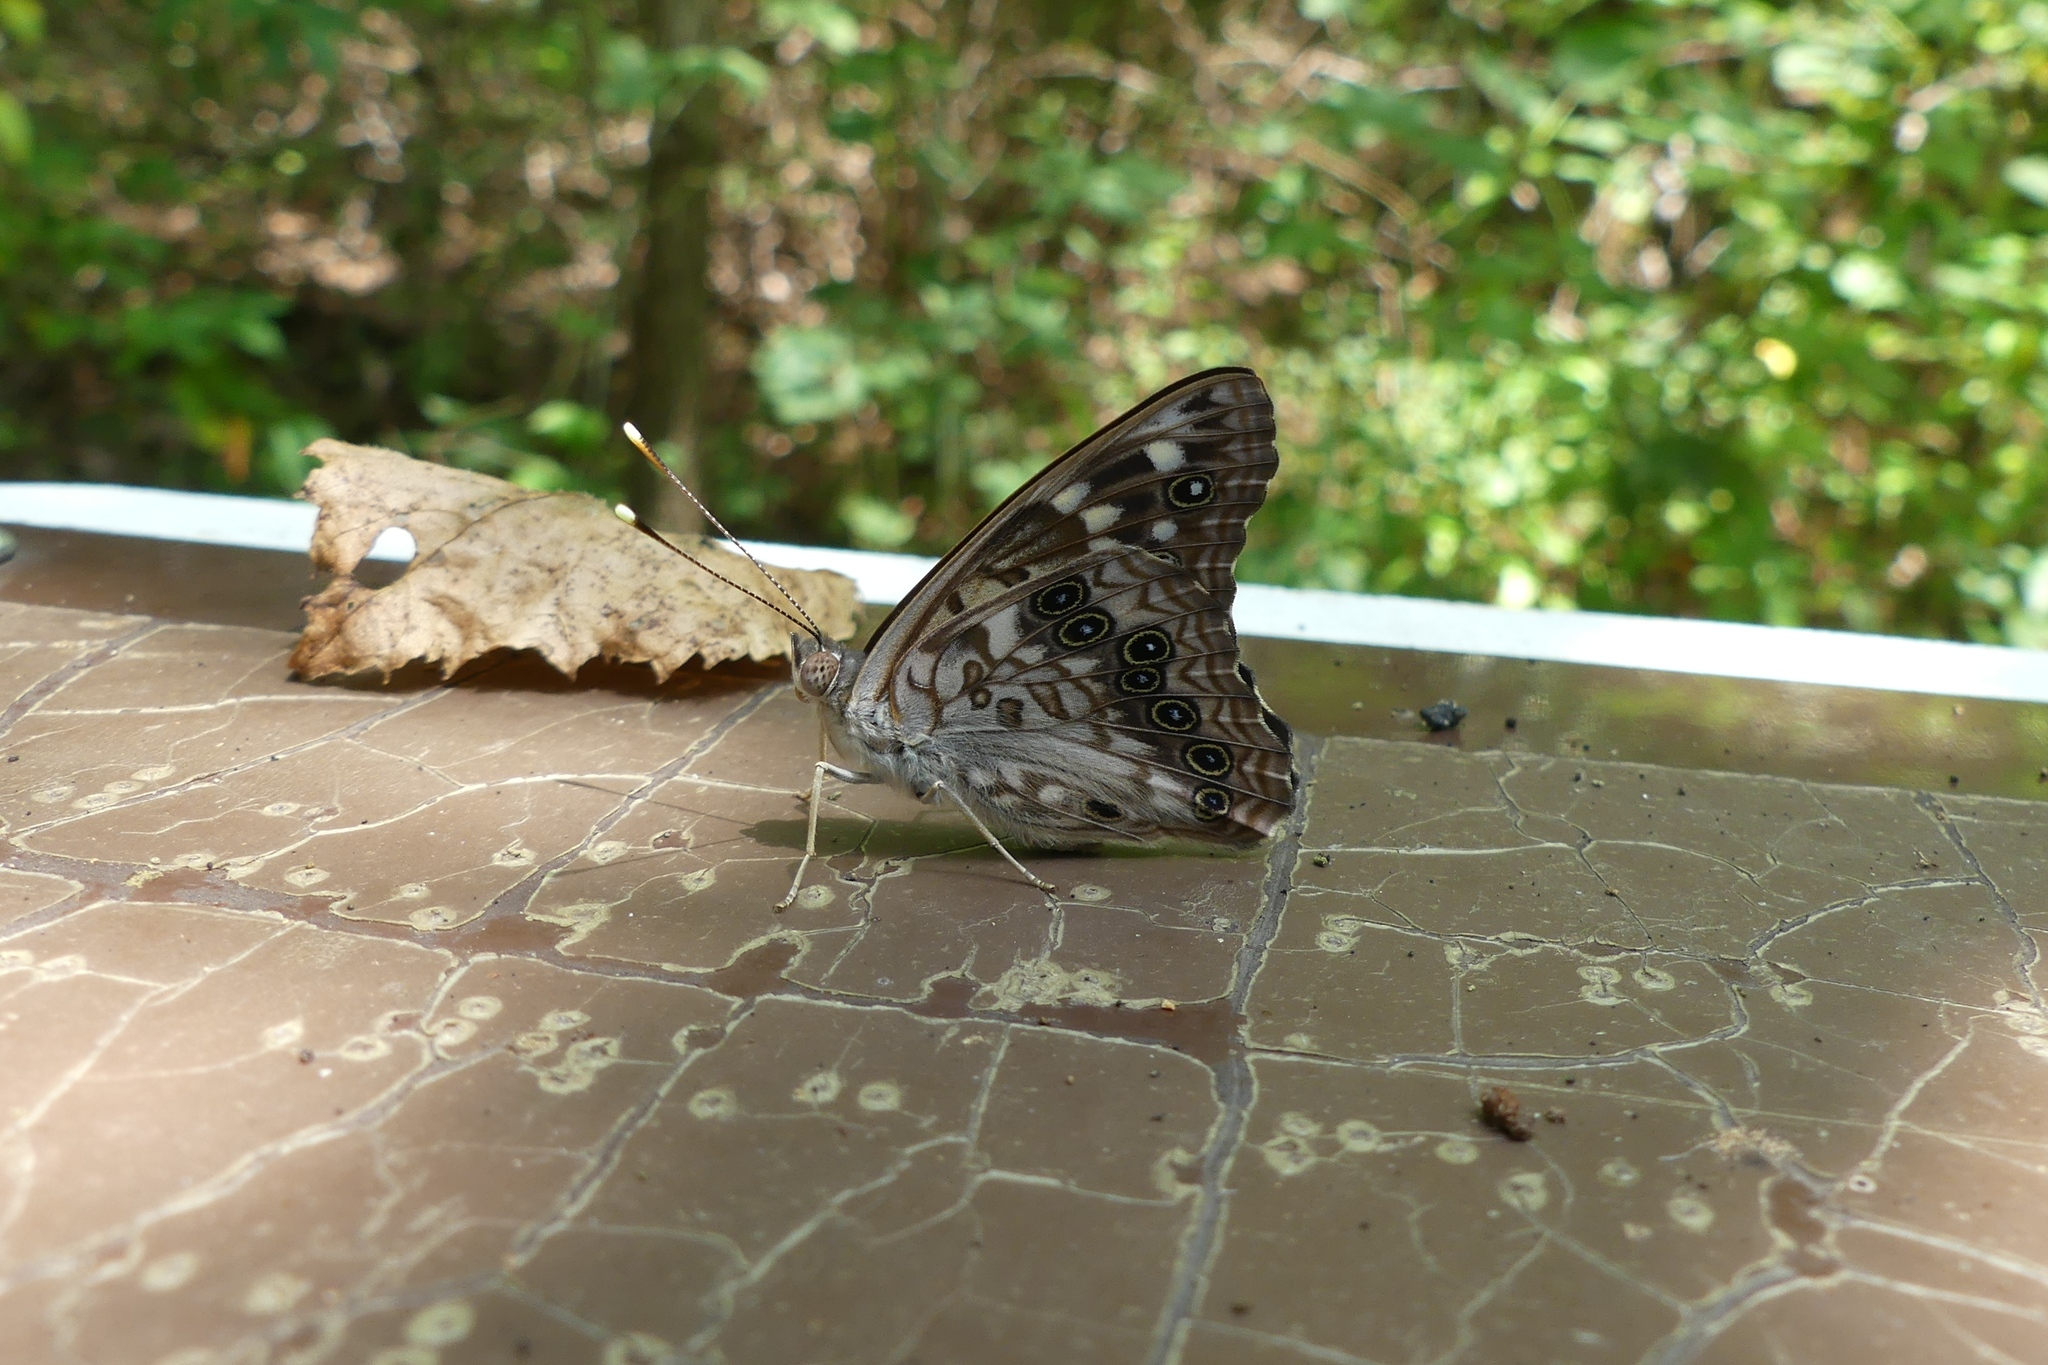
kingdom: Animalia
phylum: Arthropoda
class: Insecta
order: Lepidoptera
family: Nymphalidae
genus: Asterocampa
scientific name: Asterocampa celtis
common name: Hackberry emperor
